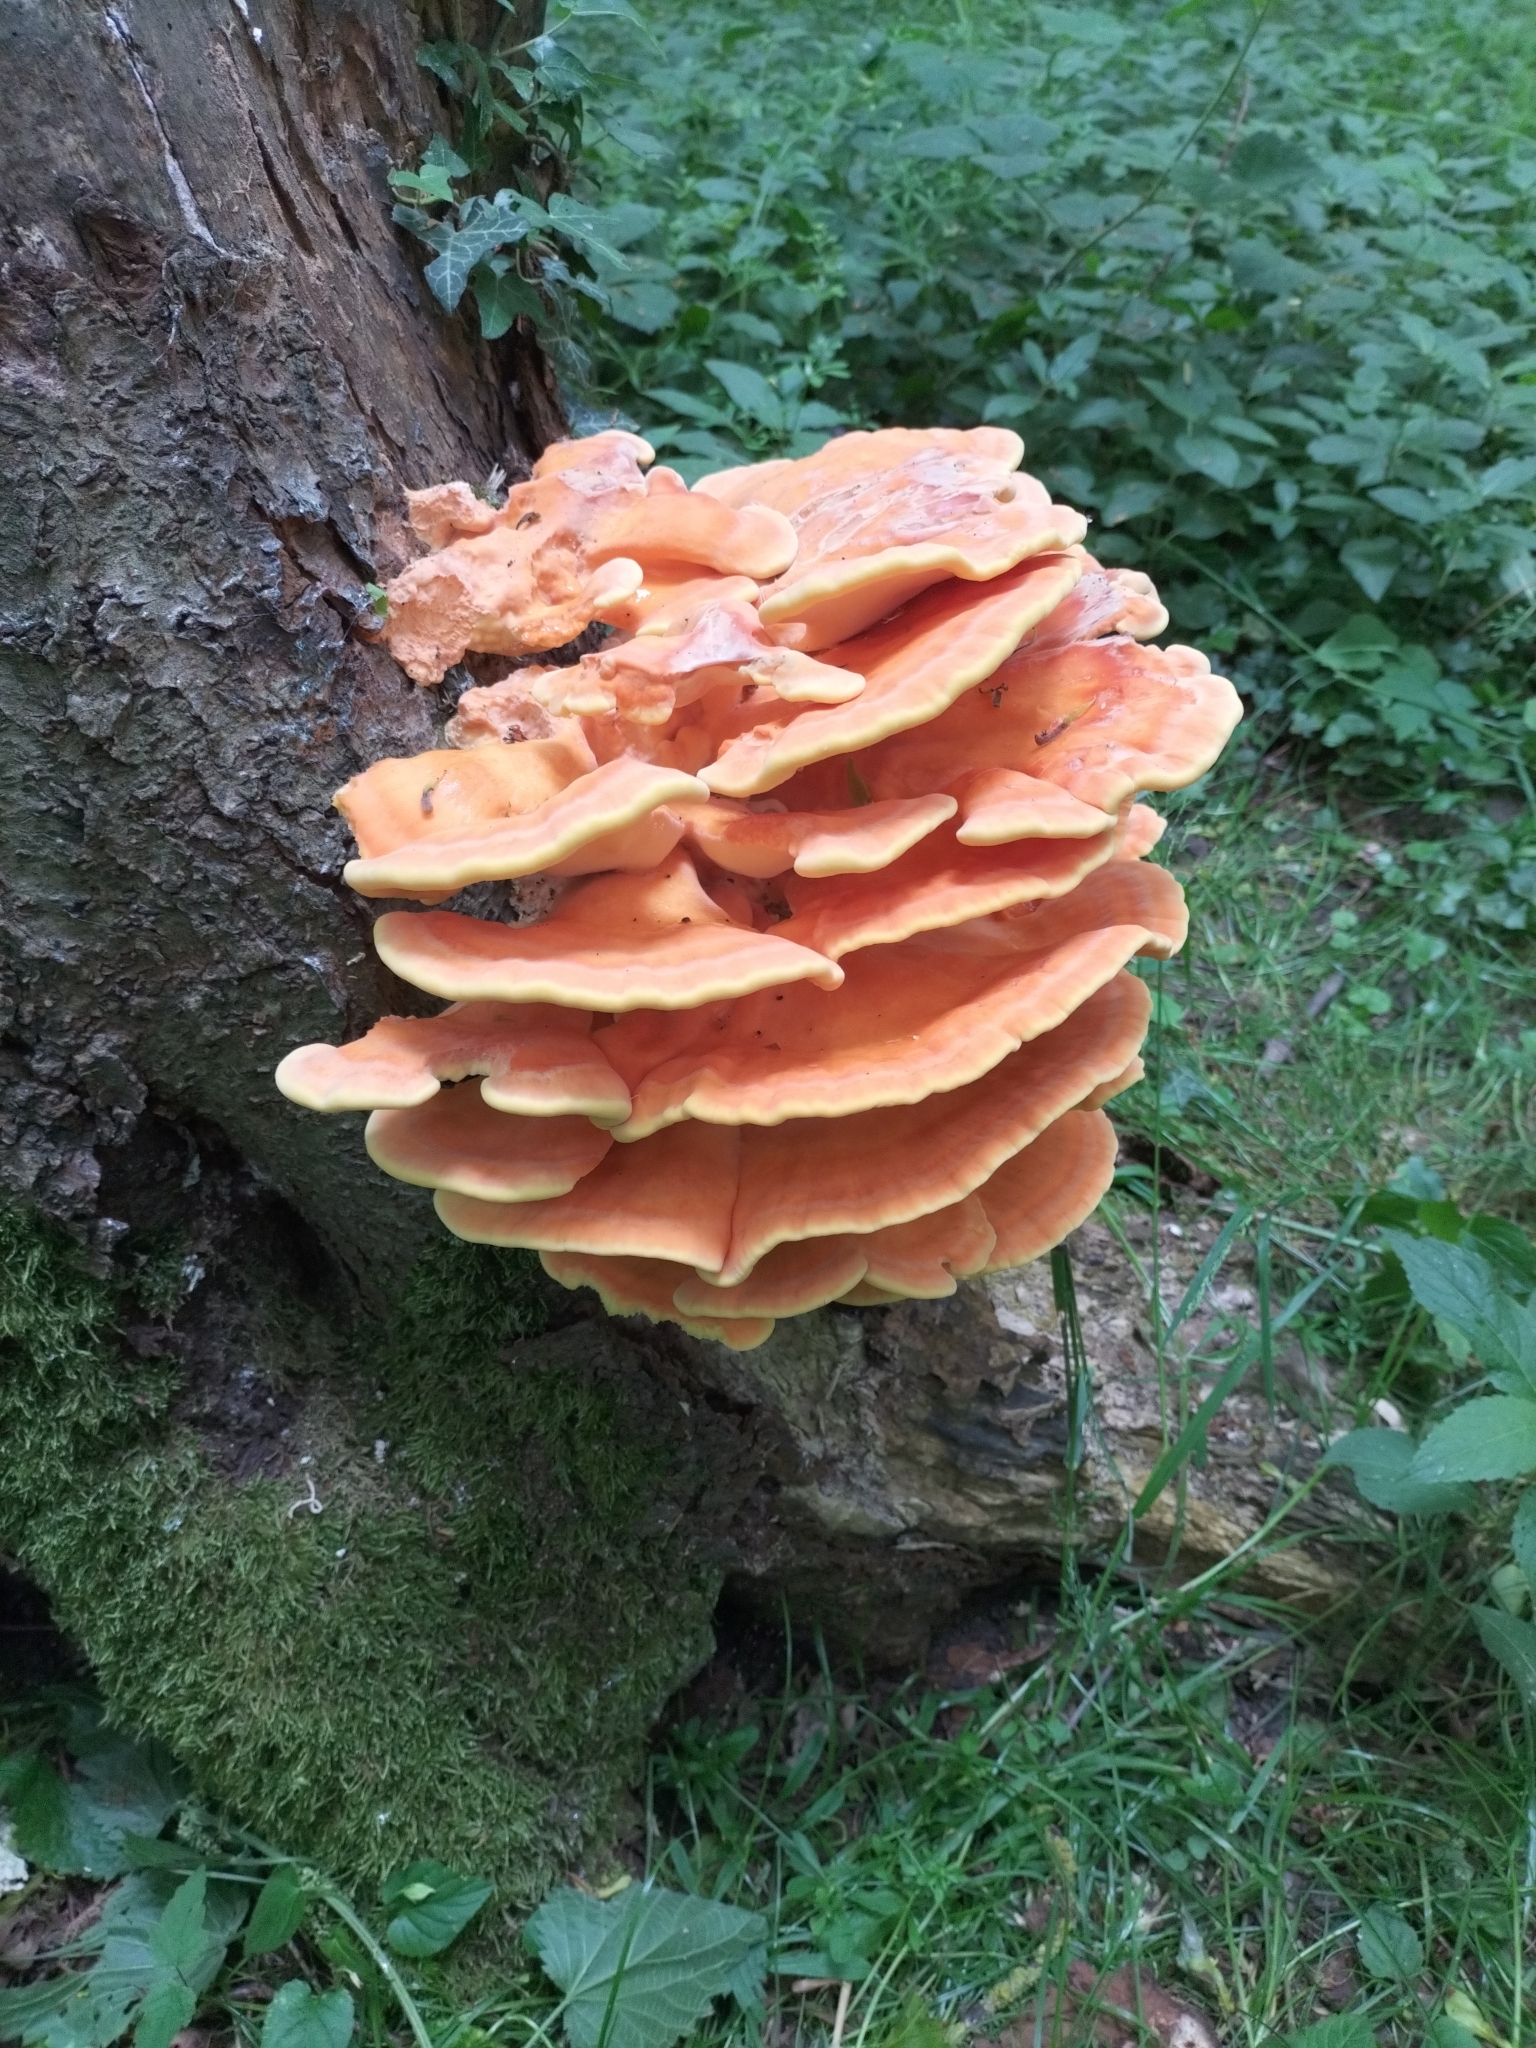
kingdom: Fungi
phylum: Basidiomycota
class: Agaricomycetes
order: Polyporales
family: Laetiporaceae
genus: Laetiporus
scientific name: Laetiporus sulphureus
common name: Chicken of the woods
